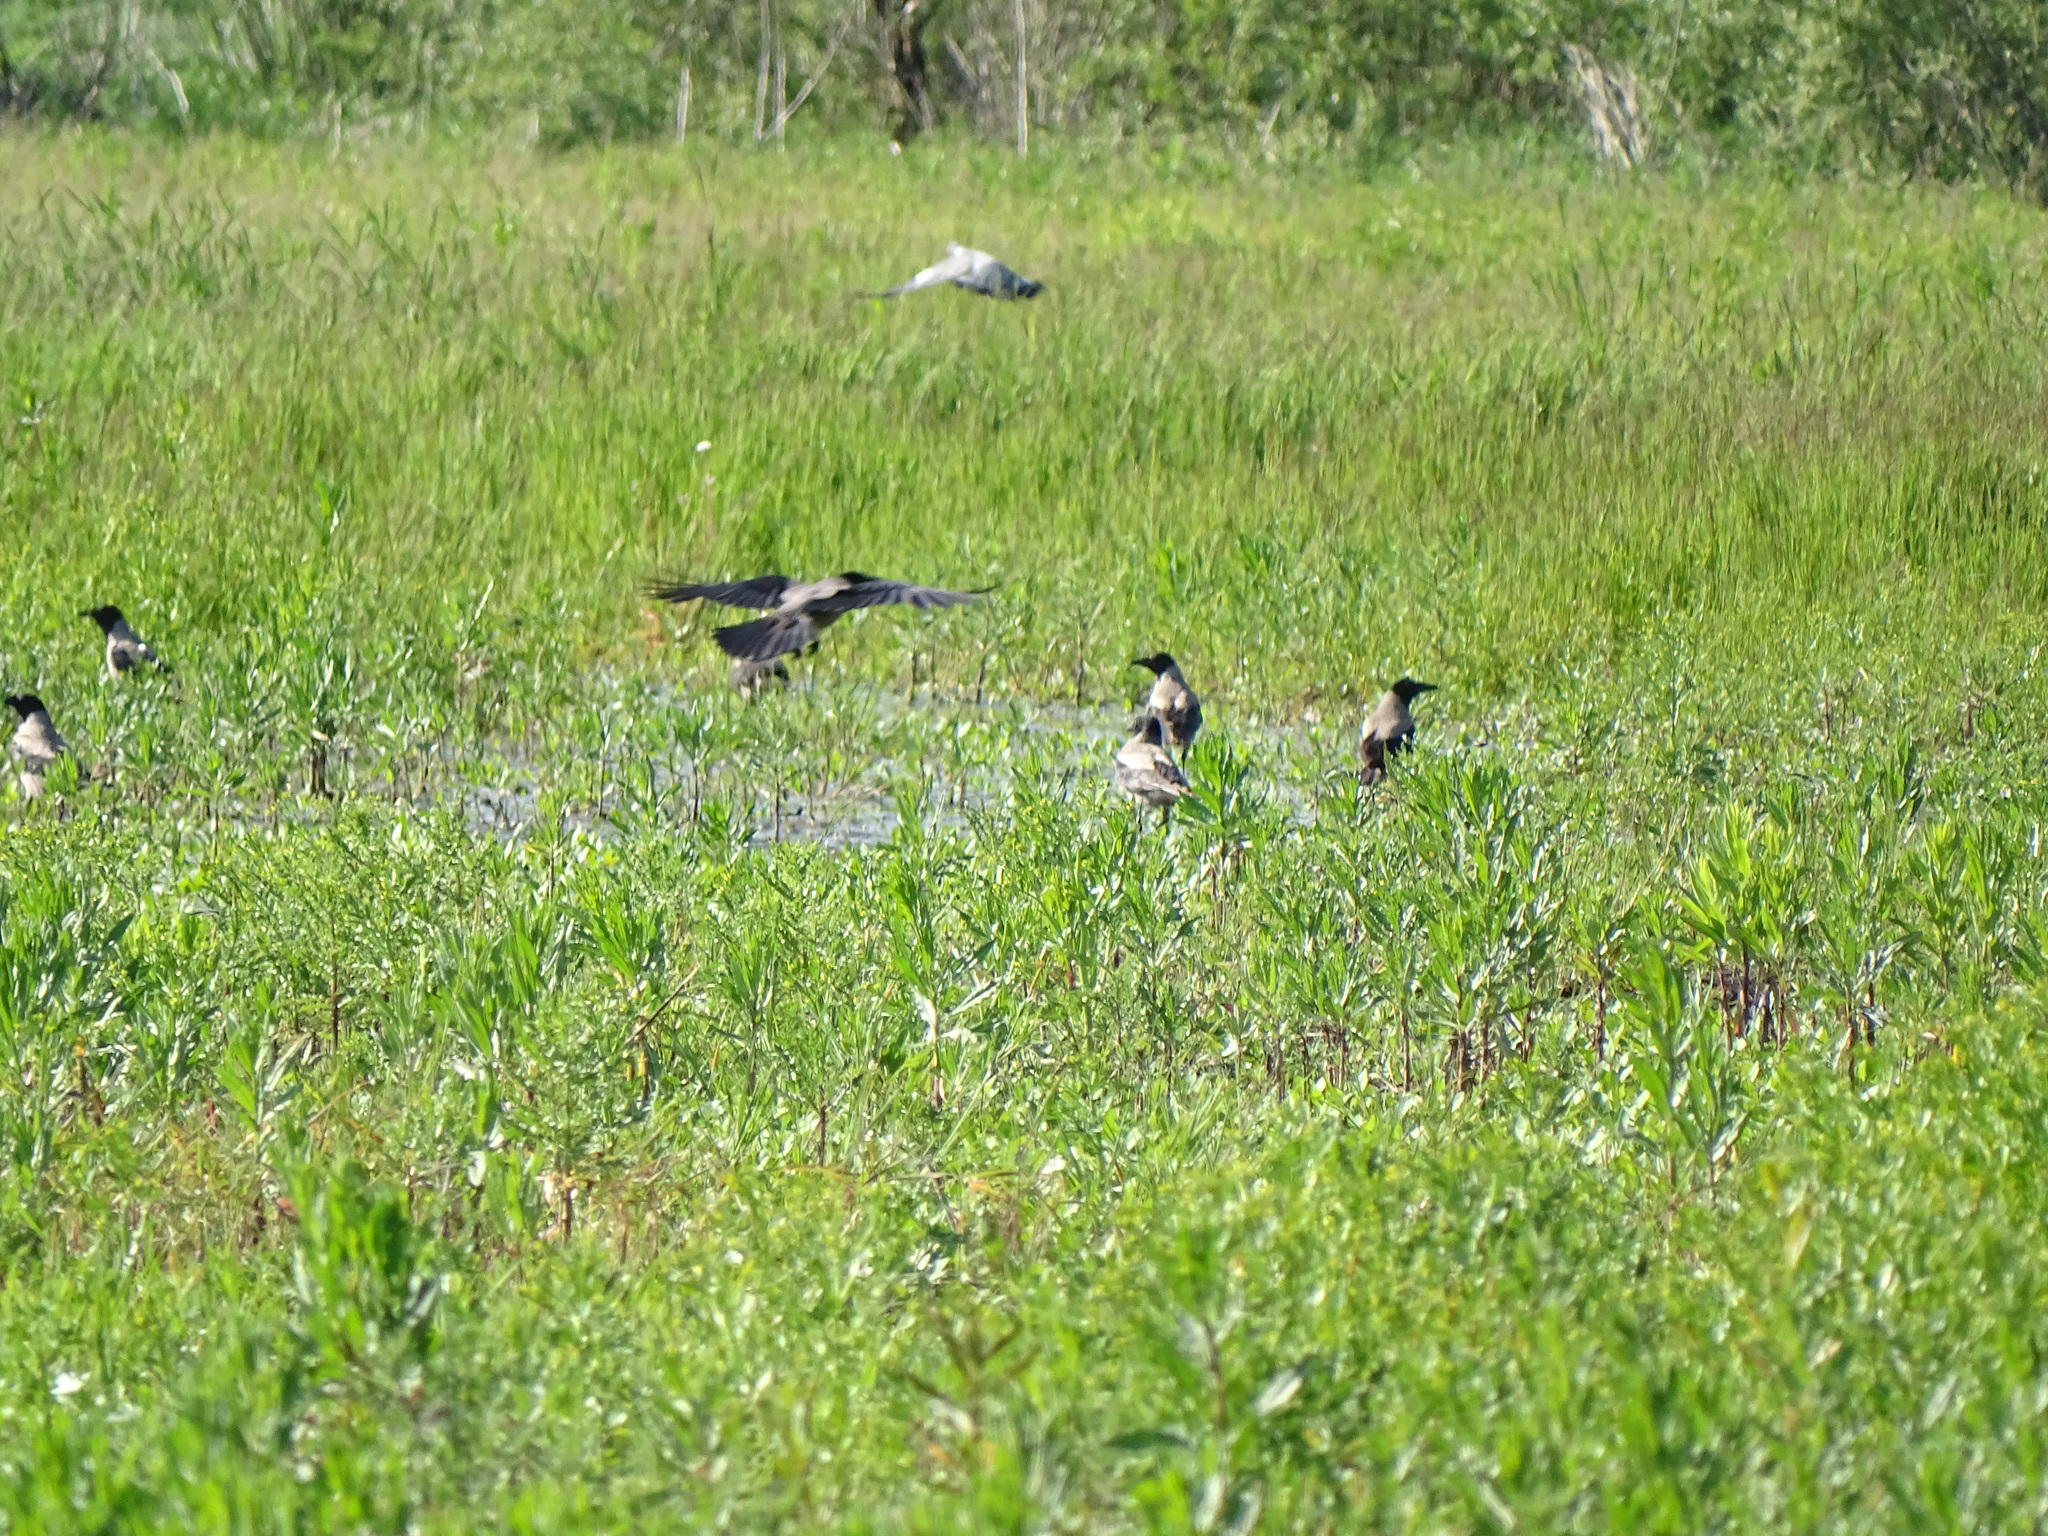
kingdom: Animalia
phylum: Chordata
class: Aves
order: Passeriformes
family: Corvidae
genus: Corvus
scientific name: Corvus cornix
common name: Hooded crow
